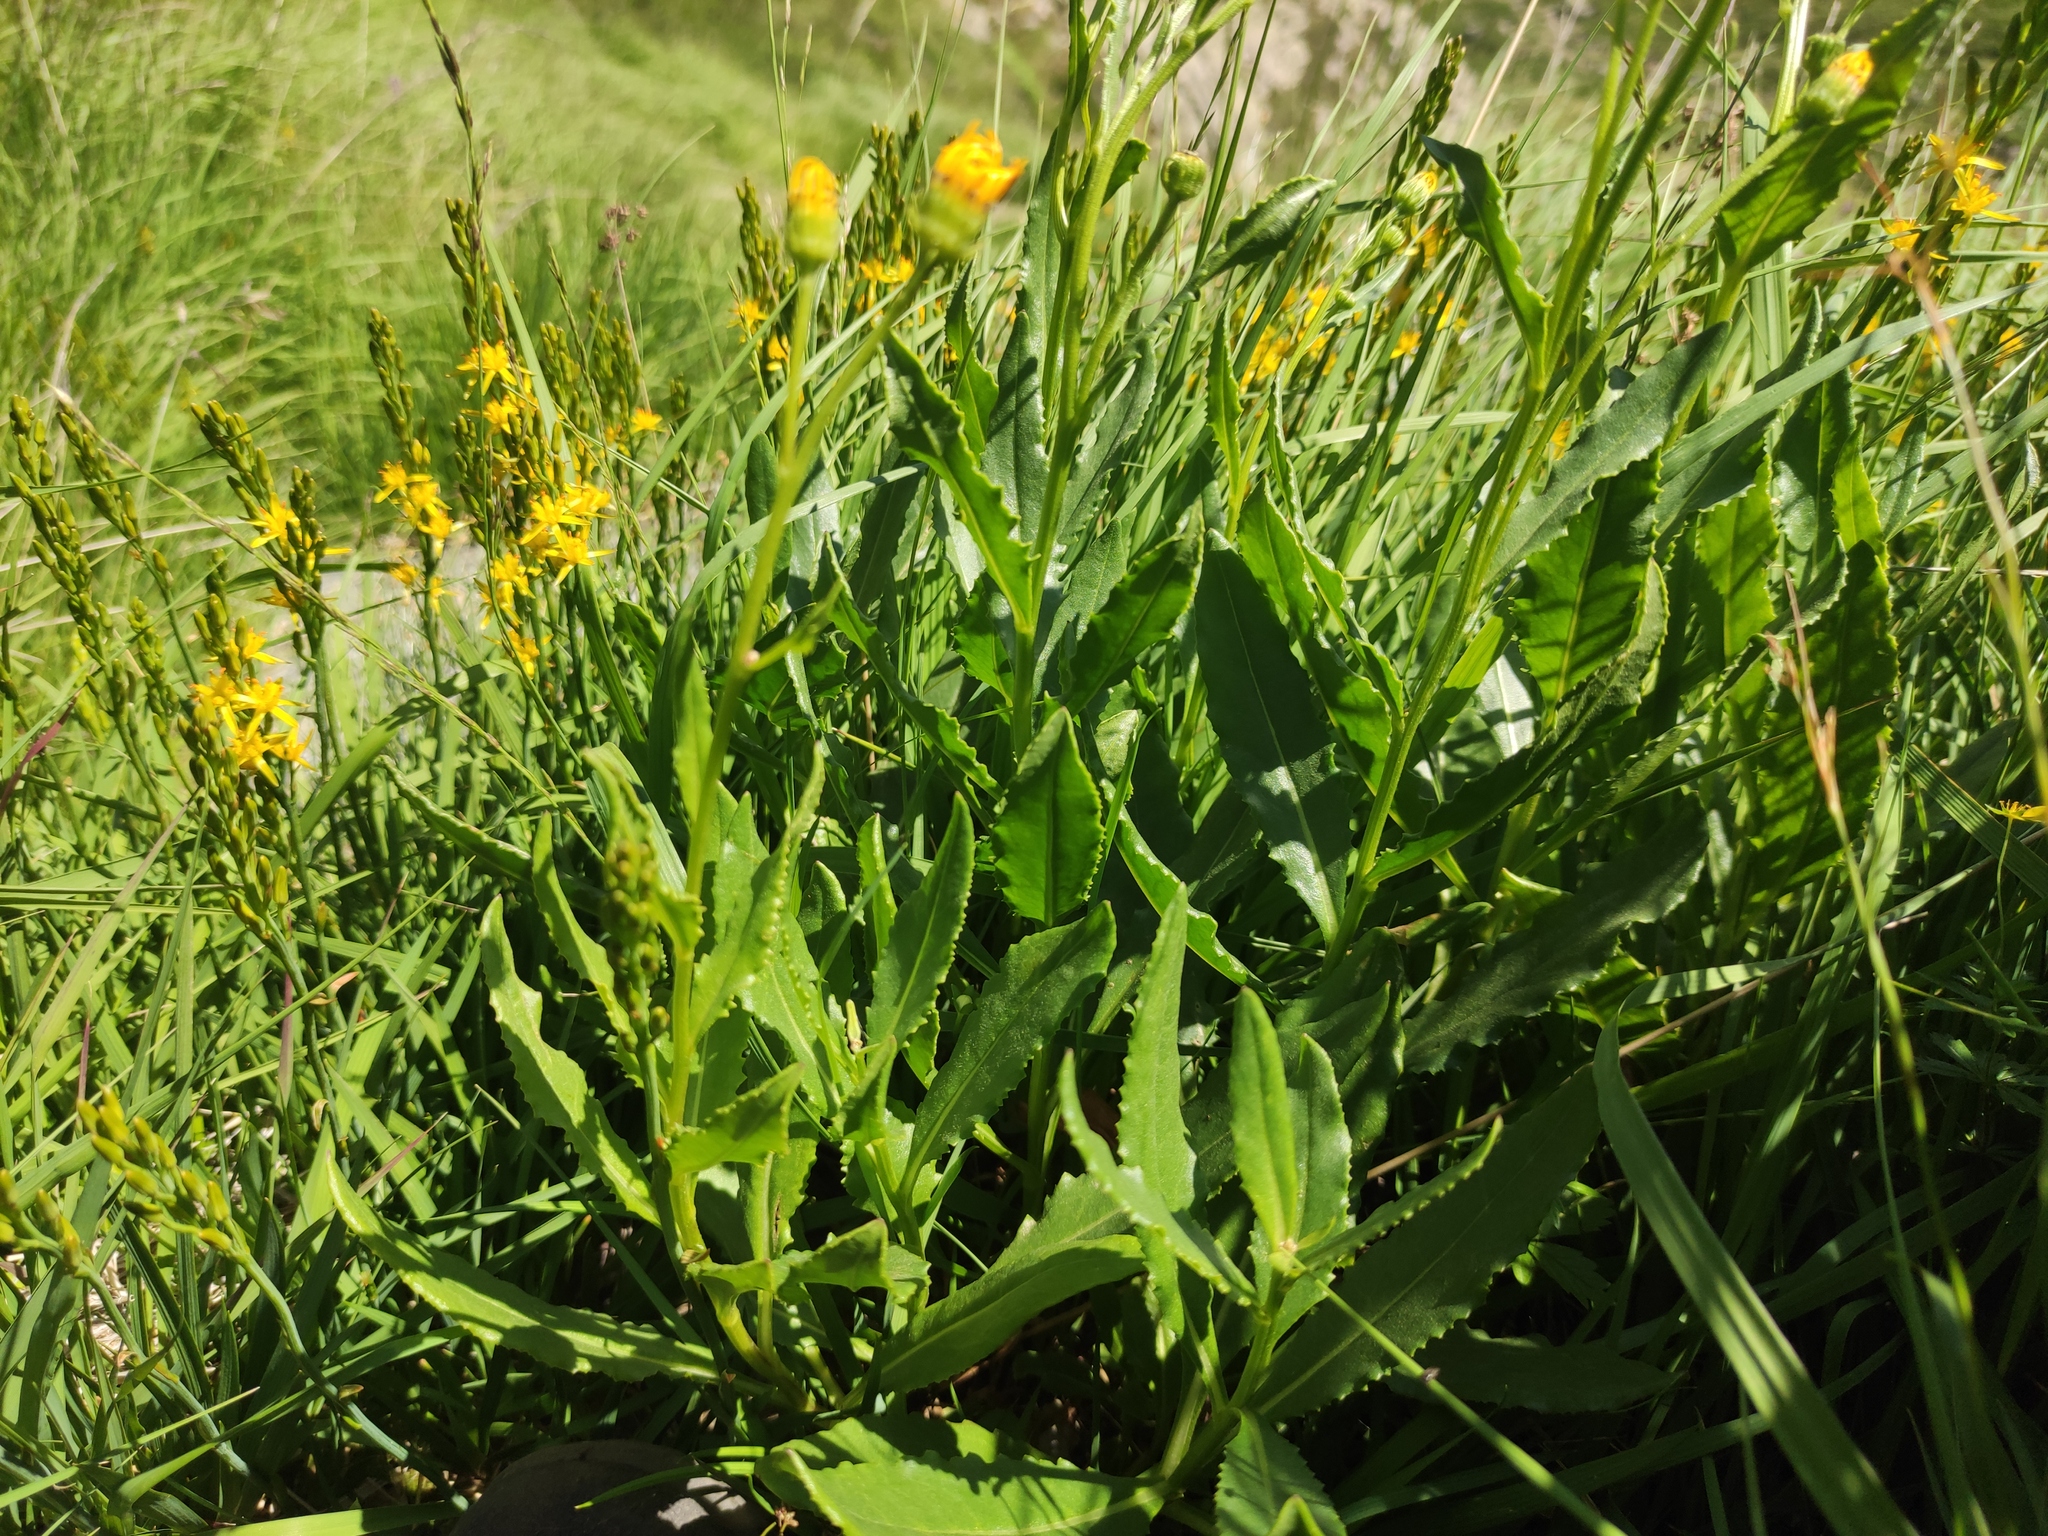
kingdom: Plantae
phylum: Tracheophyta
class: Magnoliopsida
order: Asterales
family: Asteraceae
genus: Senecio
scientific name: Senecio pyrenaicus
